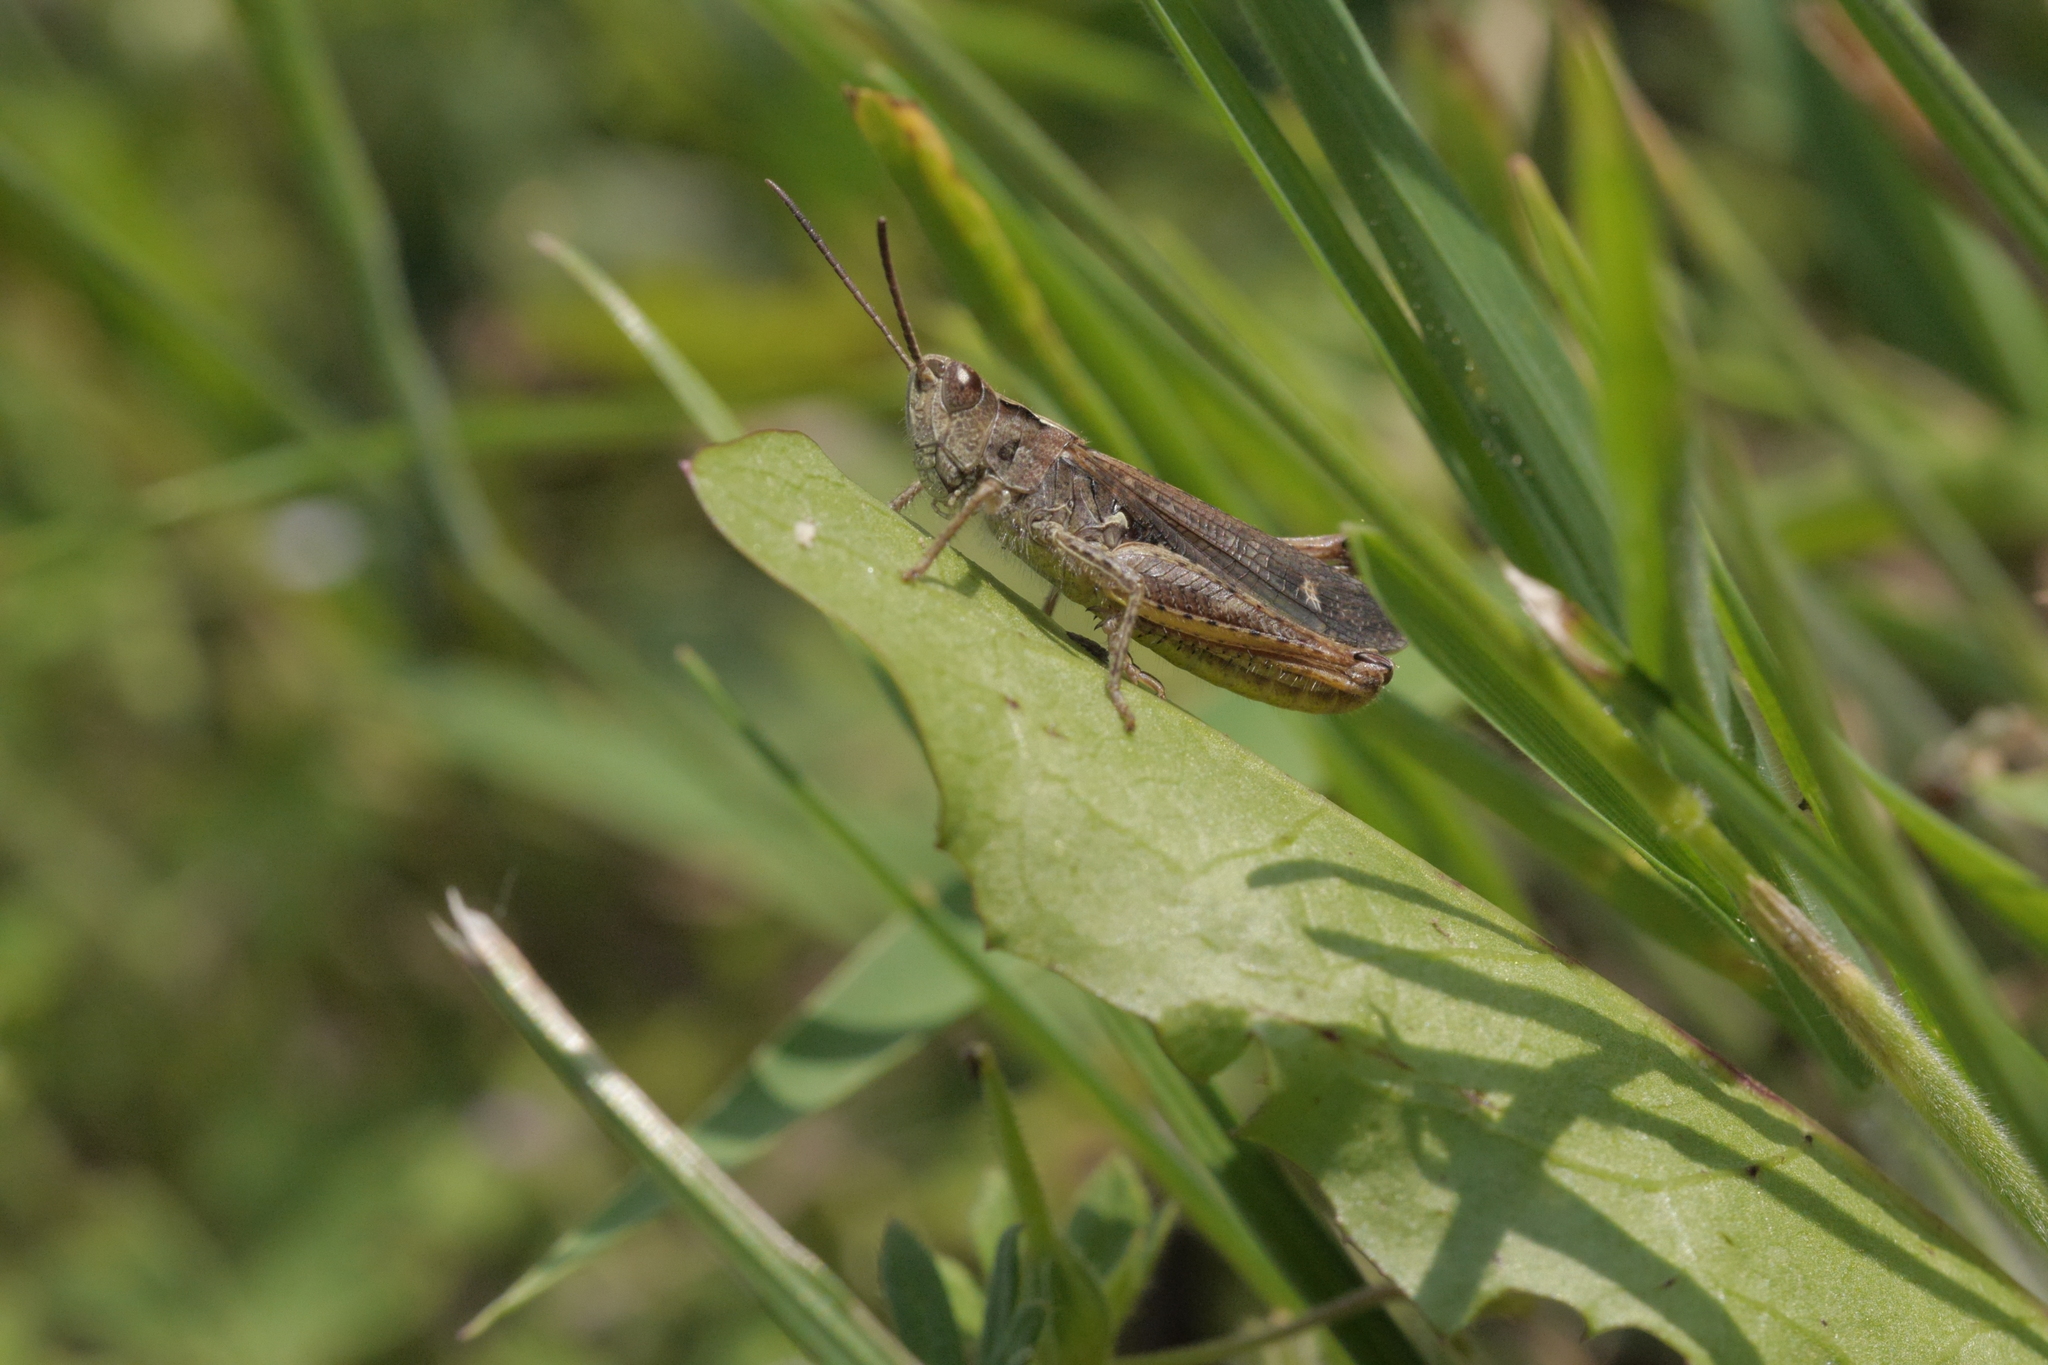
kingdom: Animalia
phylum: Arthropoda
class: Insecta
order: Orthoptera
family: Acrididae
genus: Chorthippus
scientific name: Chorthippus brunneus
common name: Field grasshopper
